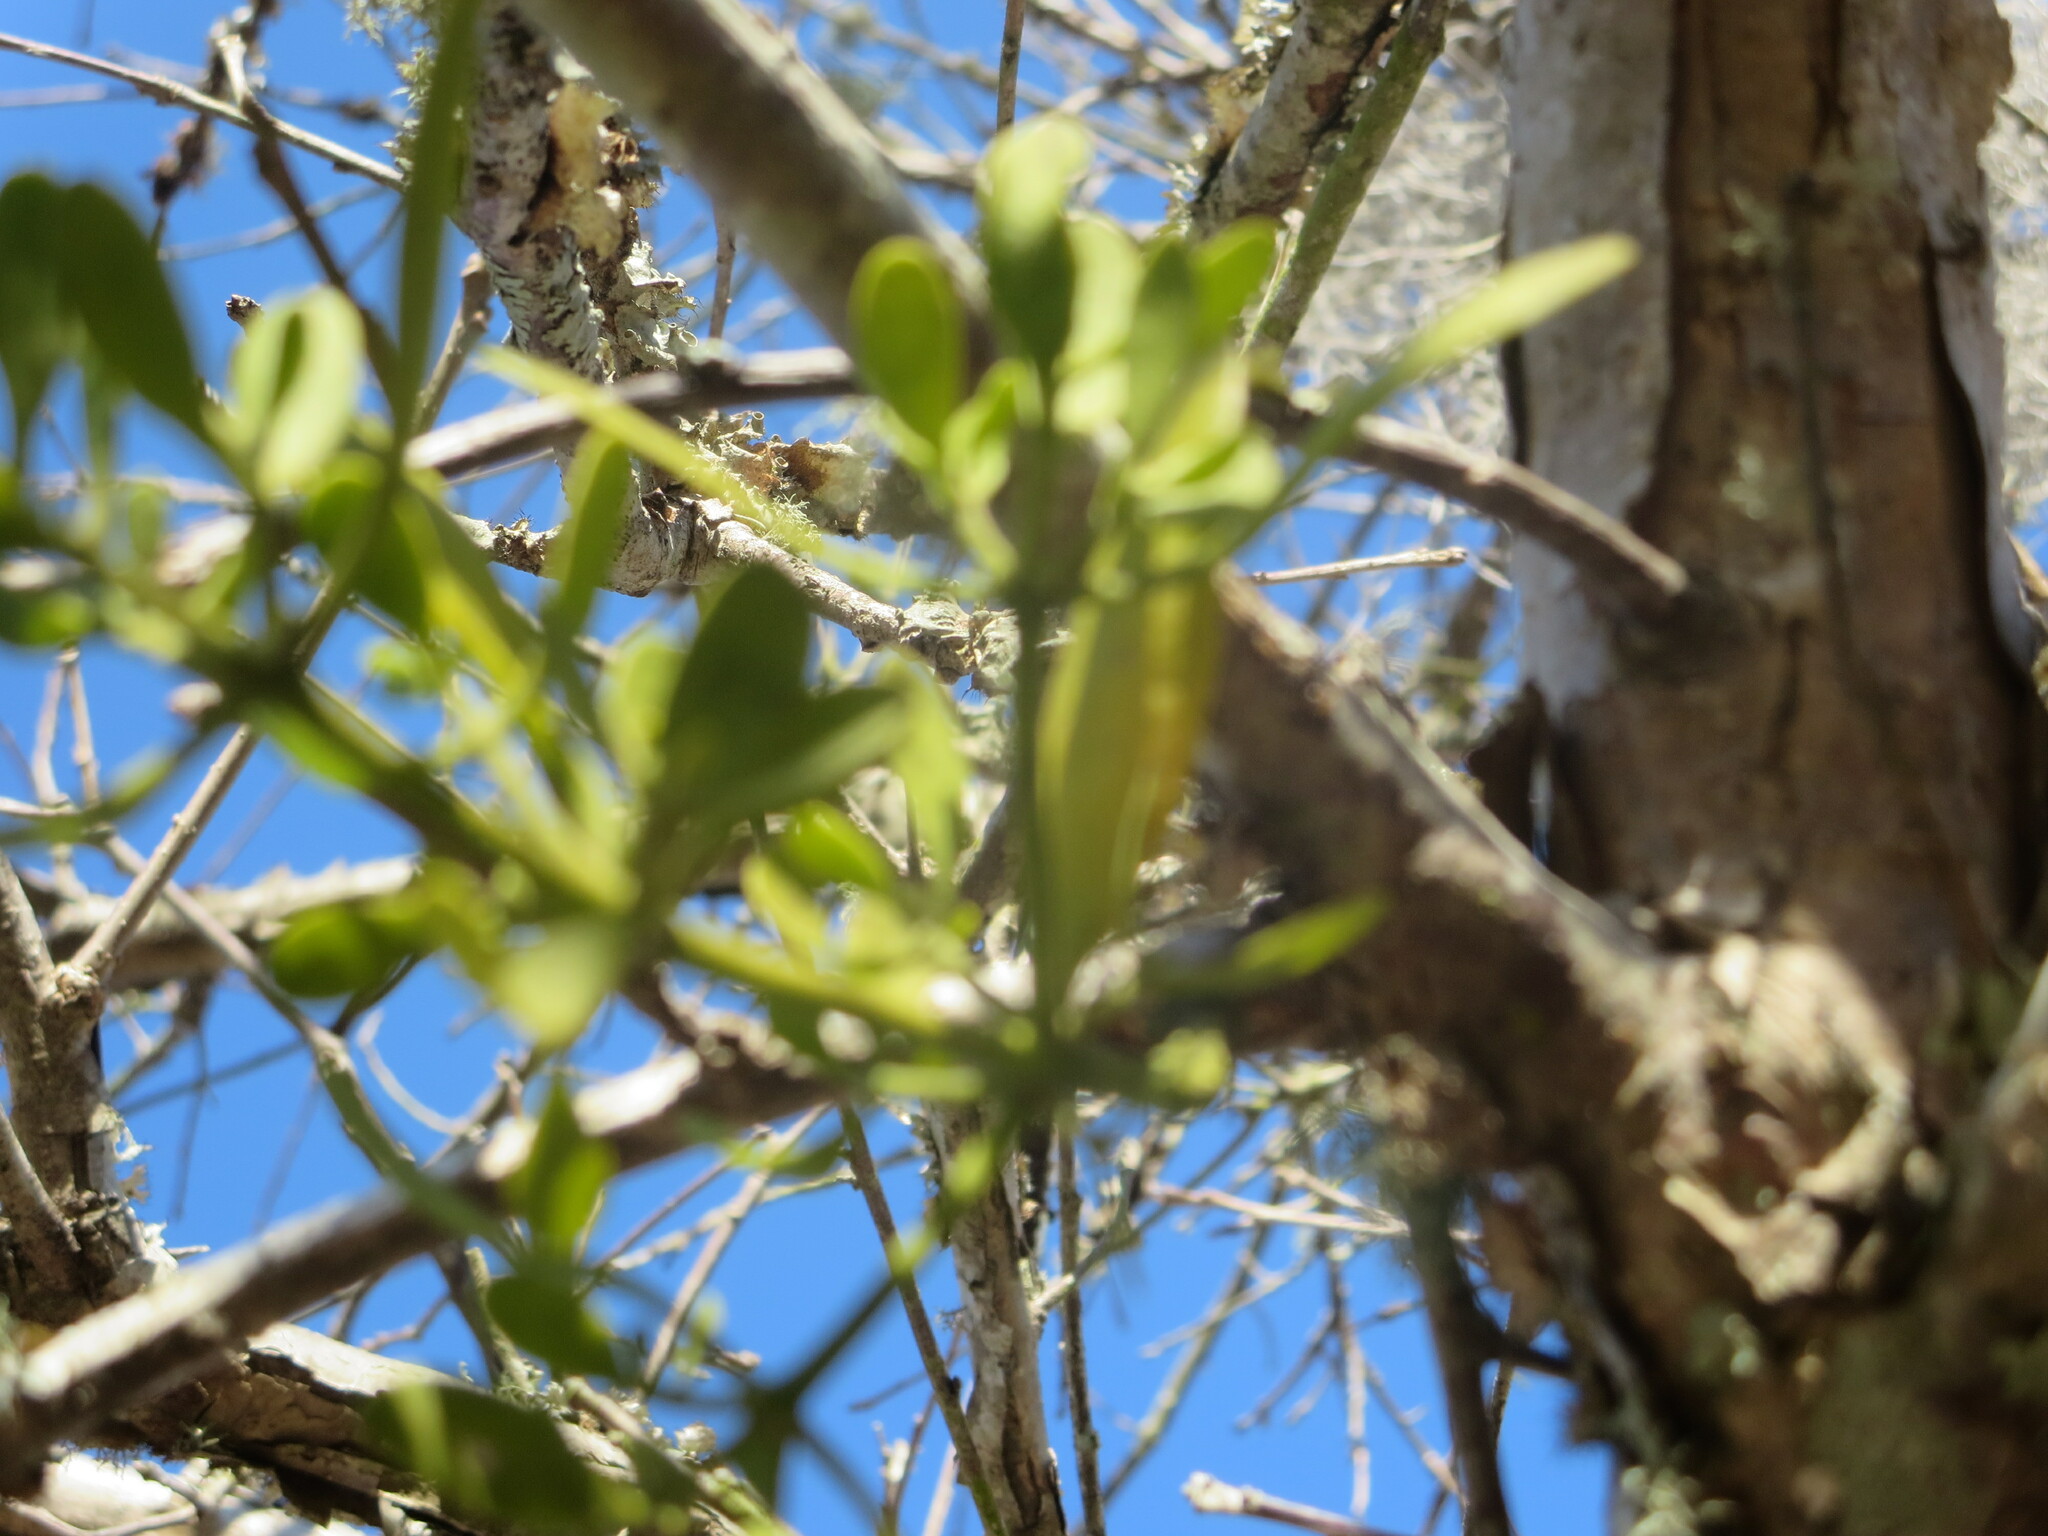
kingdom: Plantae
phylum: Tracheophyta
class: Magnoliopsida
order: Santalales
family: Viscaceae
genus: Phoradendron
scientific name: Phoradendron leucarpum
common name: Pacific mistletoe
